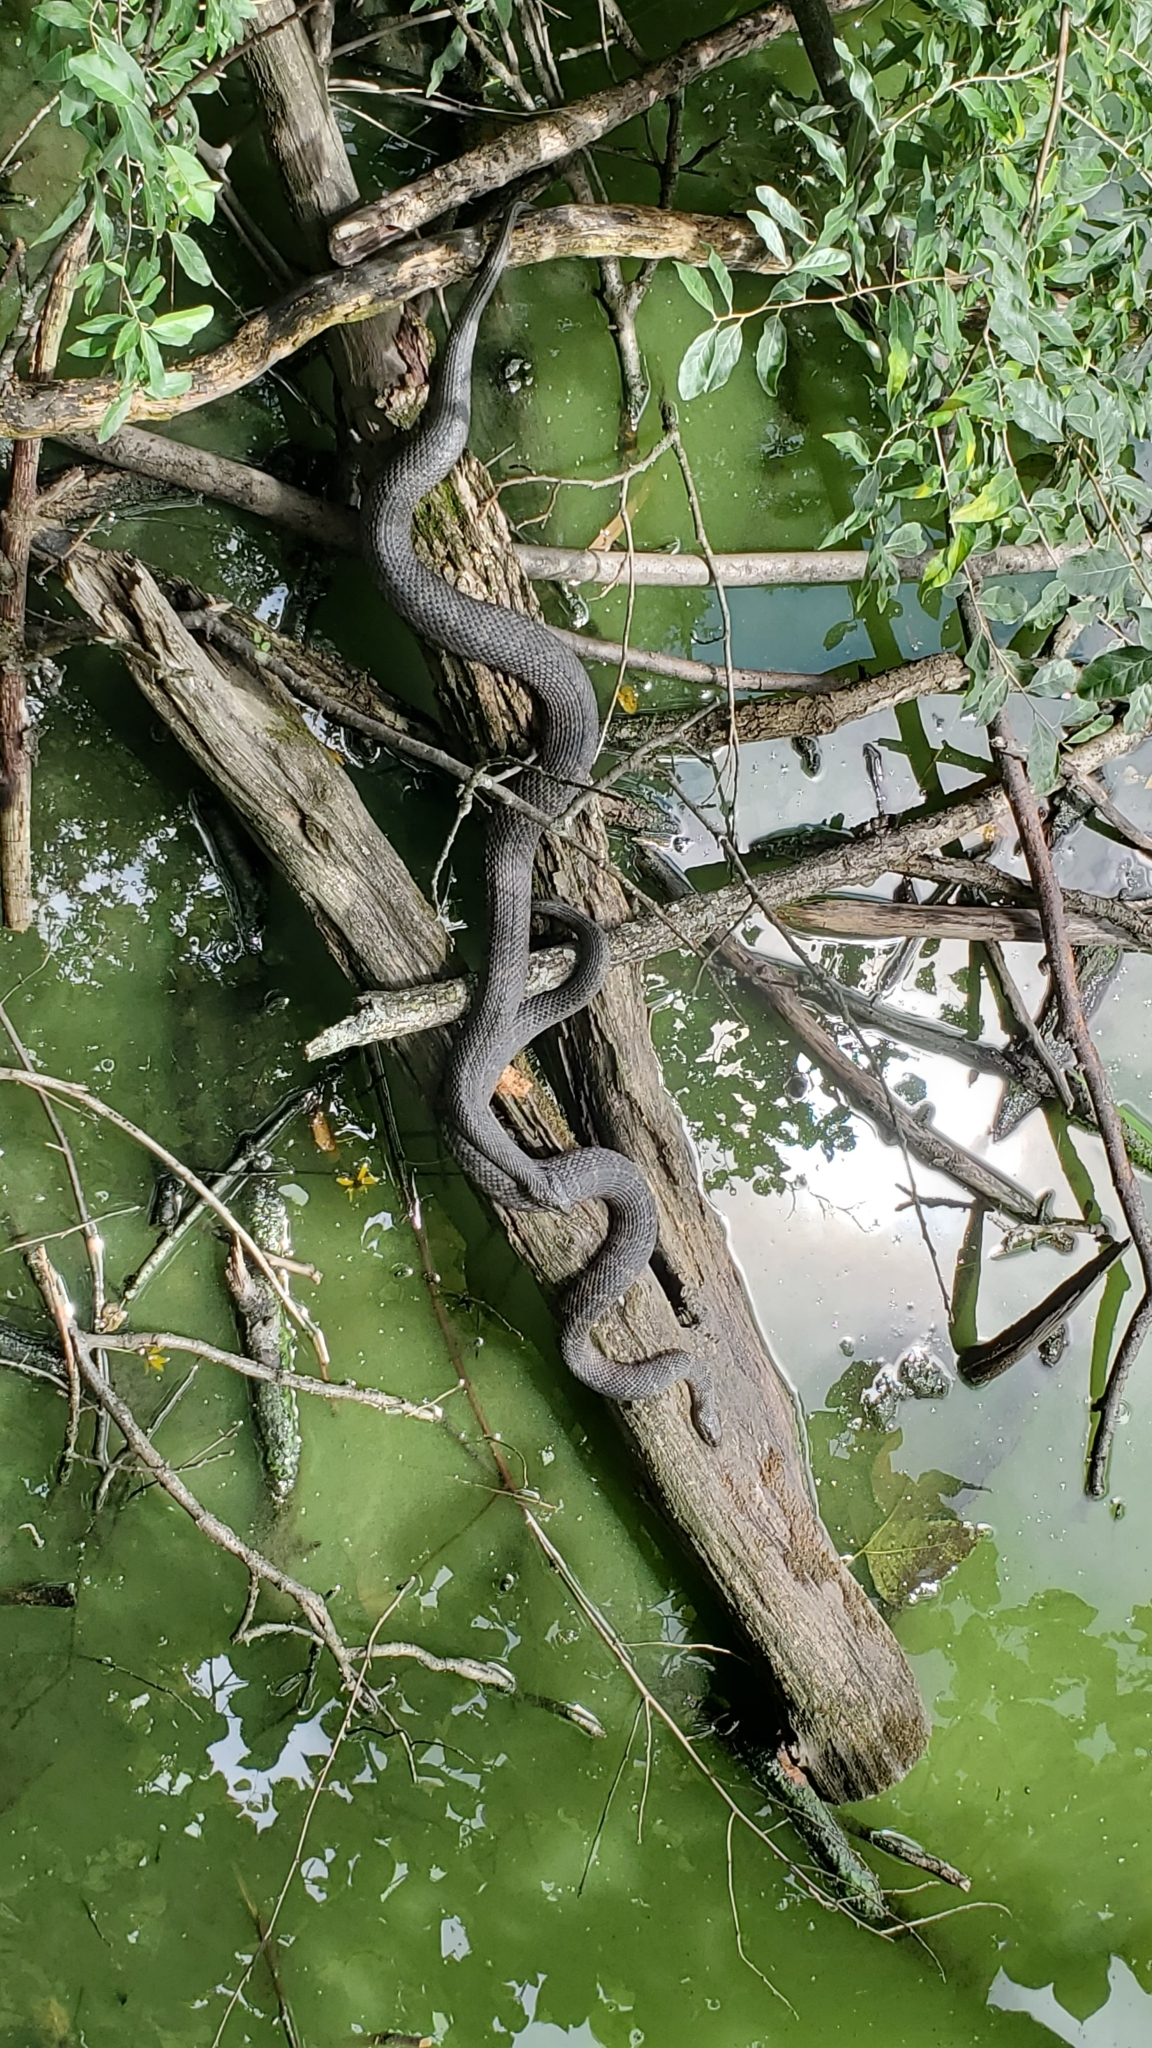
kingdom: Animalia
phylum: Chordata
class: Squamata
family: Colubridae
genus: Nerodia
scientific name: Nerodia sipedon
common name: Northern water snake
